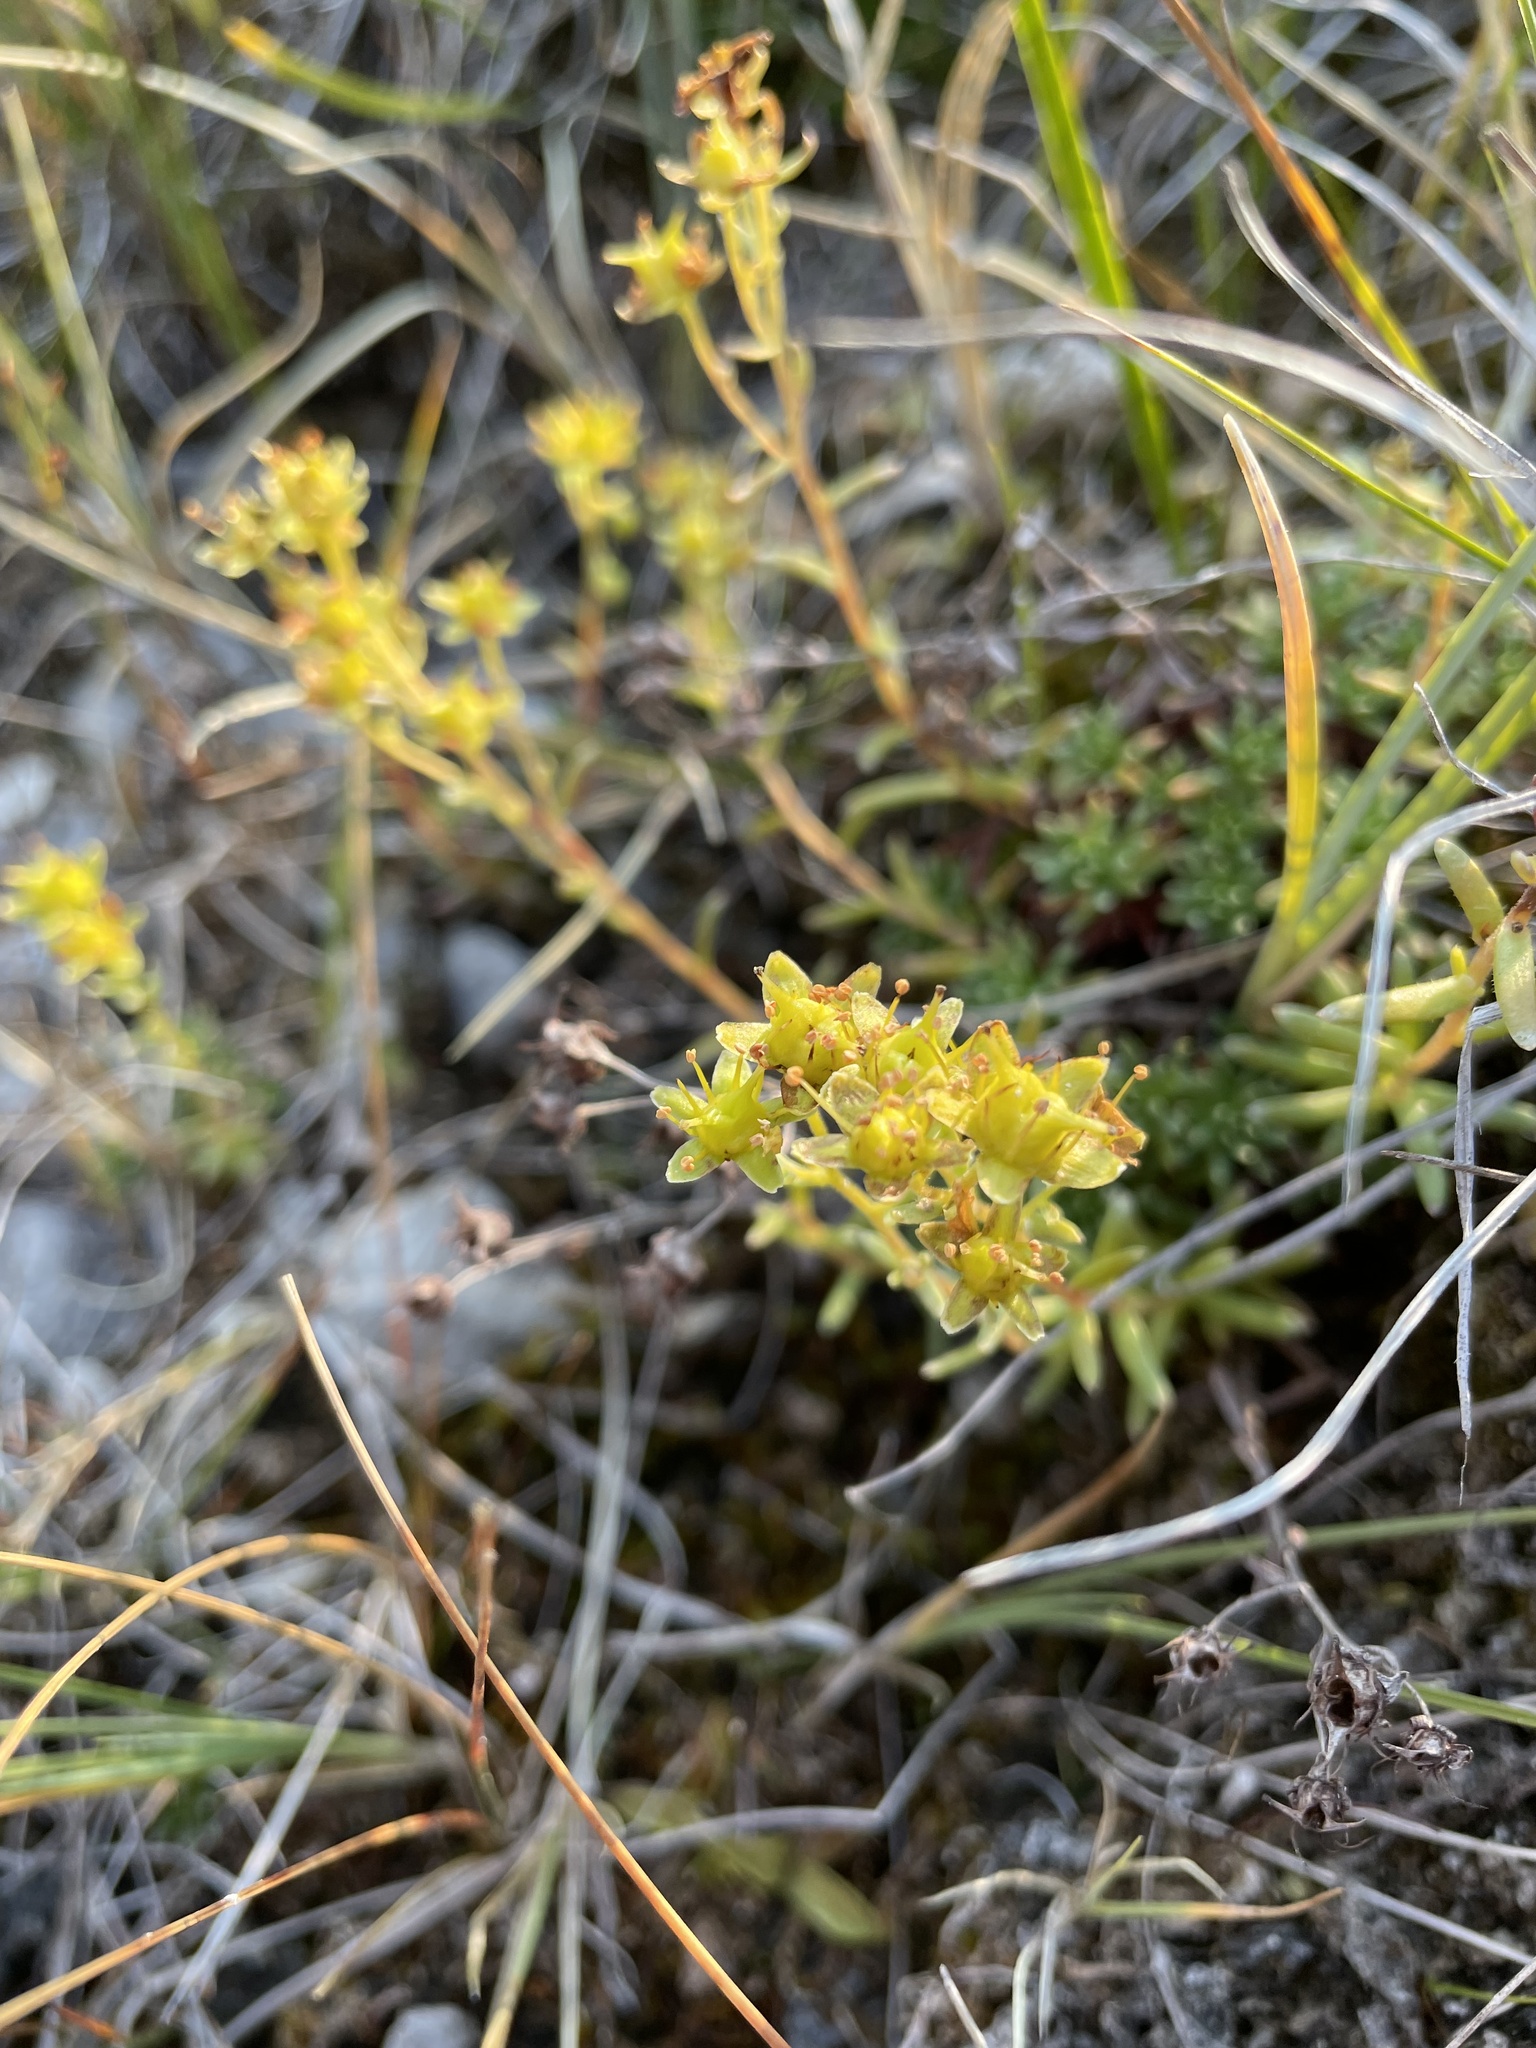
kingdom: Plantae
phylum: Tracheophyta
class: Magnoliopsida
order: Saxifragales
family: Saxifragaceae
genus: Saxifraga
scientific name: Saxifraga aizoides
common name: Yellow mountain saxifrage
